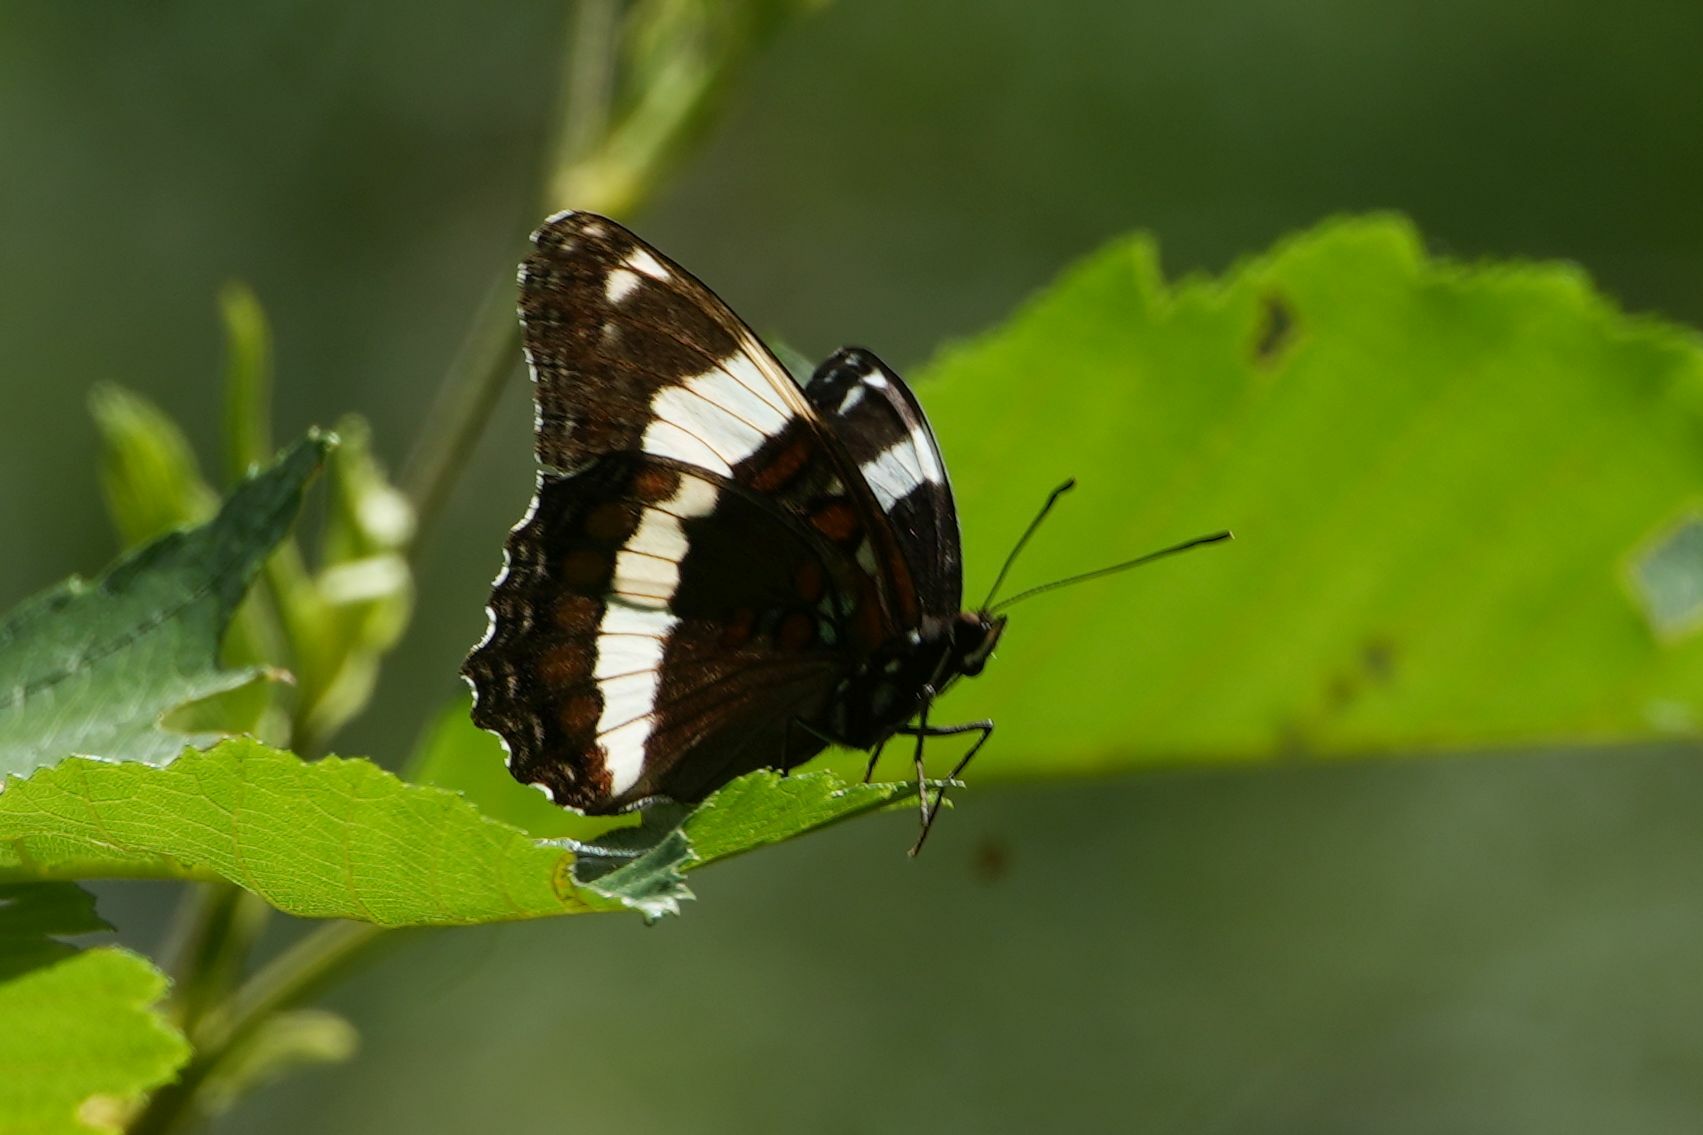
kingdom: Animalia
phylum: Arthropoda
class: Insecta
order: Lepidoptera
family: Nymphalidae
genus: Limenitis
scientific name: Limenitis arthemis
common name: Red-spotted admiral
